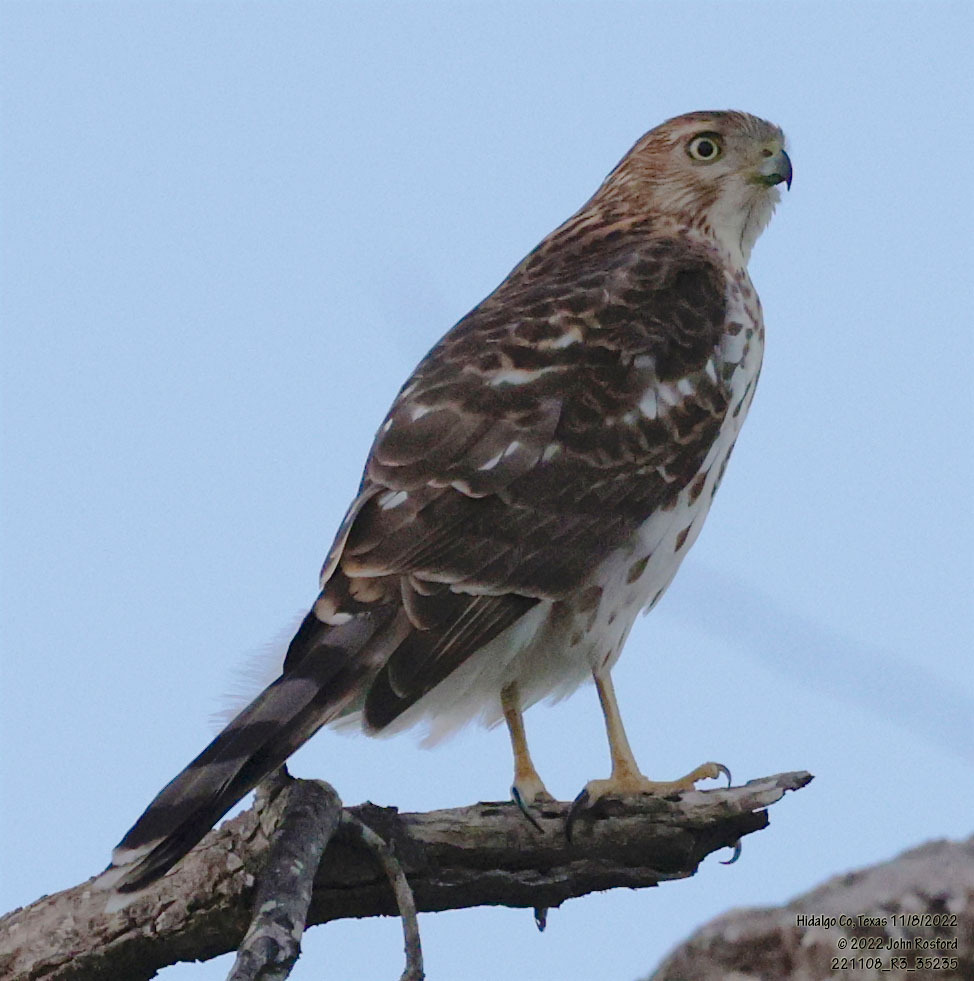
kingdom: Animalia
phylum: Chordata
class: Aves
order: Accipitriformes
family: Accipitridae
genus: Accipiter
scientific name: Accipiter cooperii
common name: Cooper's hawk
